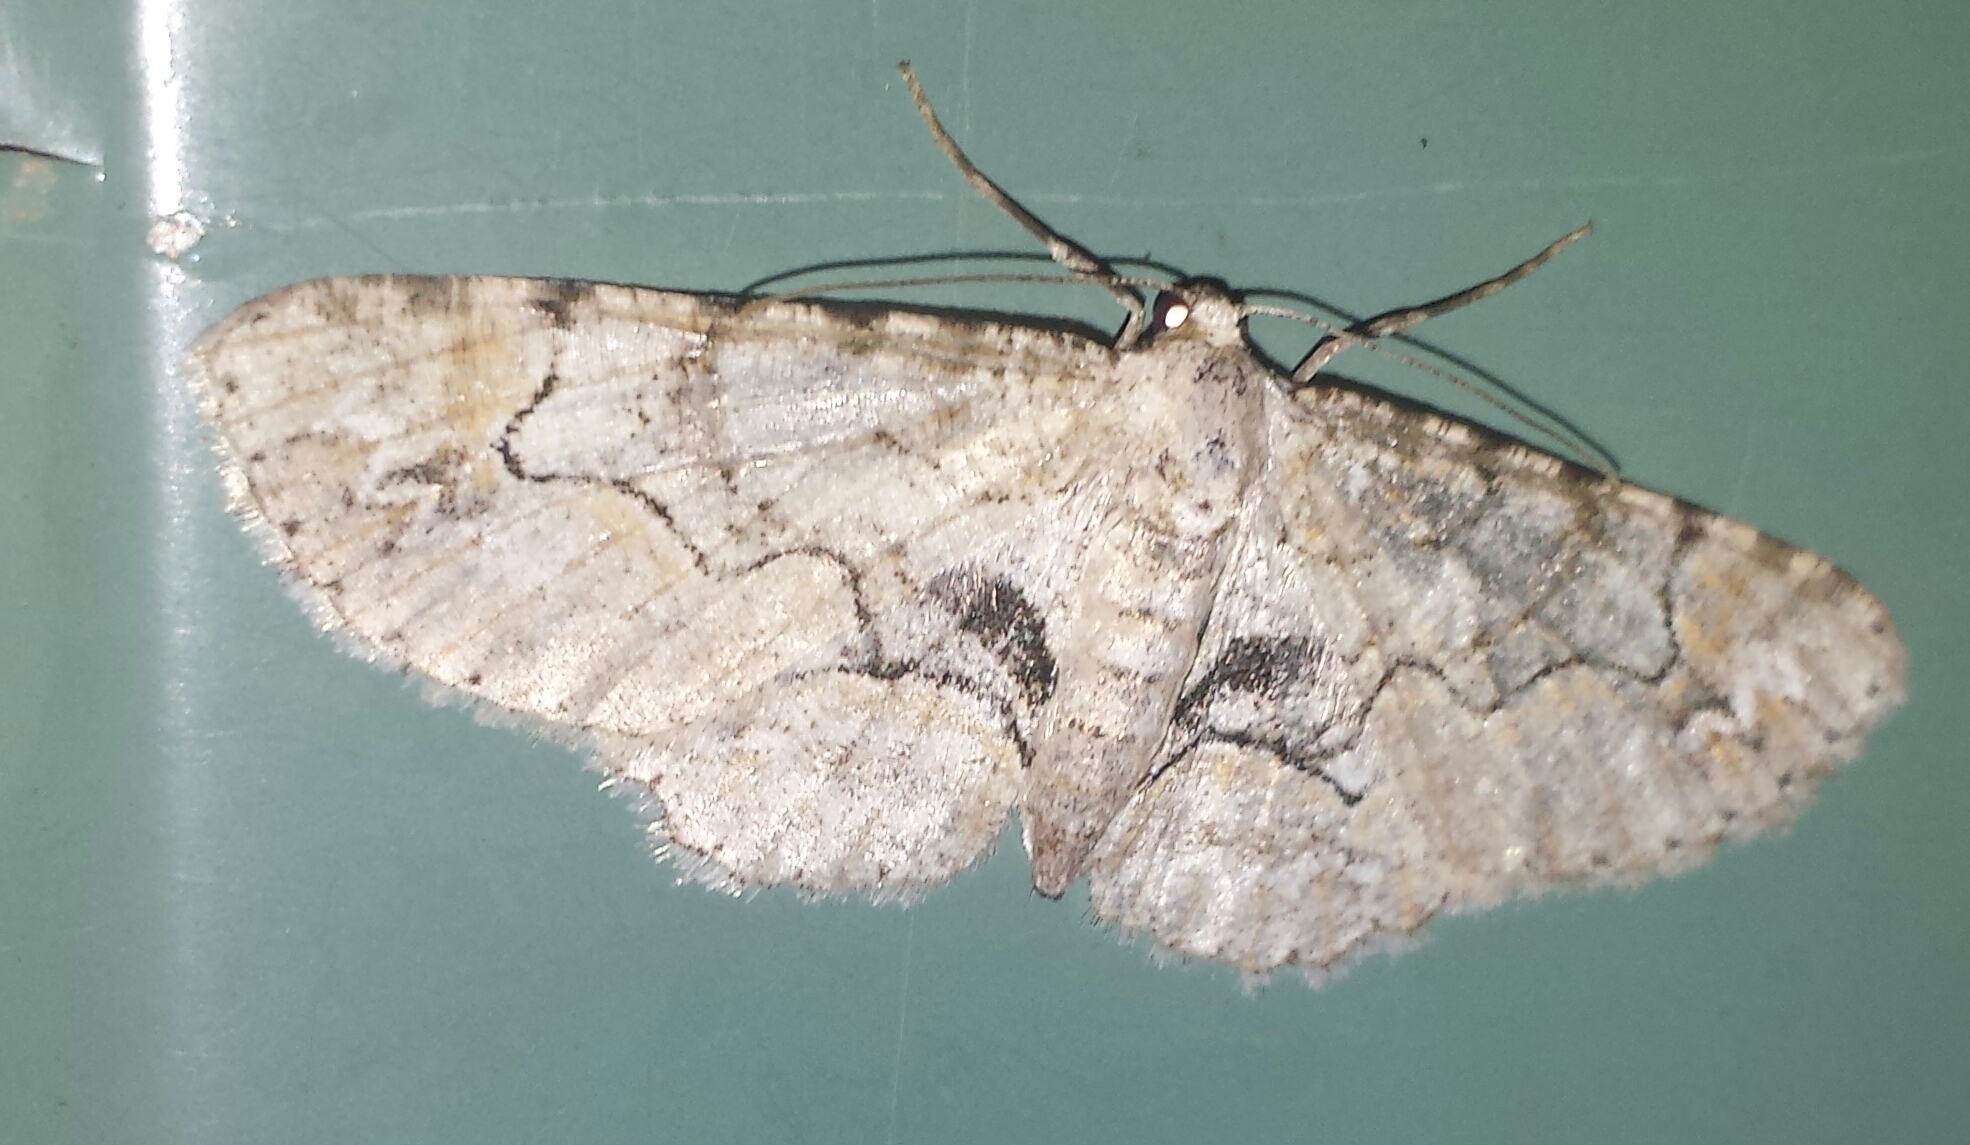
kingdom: Animalia
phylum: Arthropoda
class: Insecta
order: Lepidoptera
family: Geometridae
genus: Iridopsis
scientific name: Iridopsis larvaria
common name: Bent-line gray
